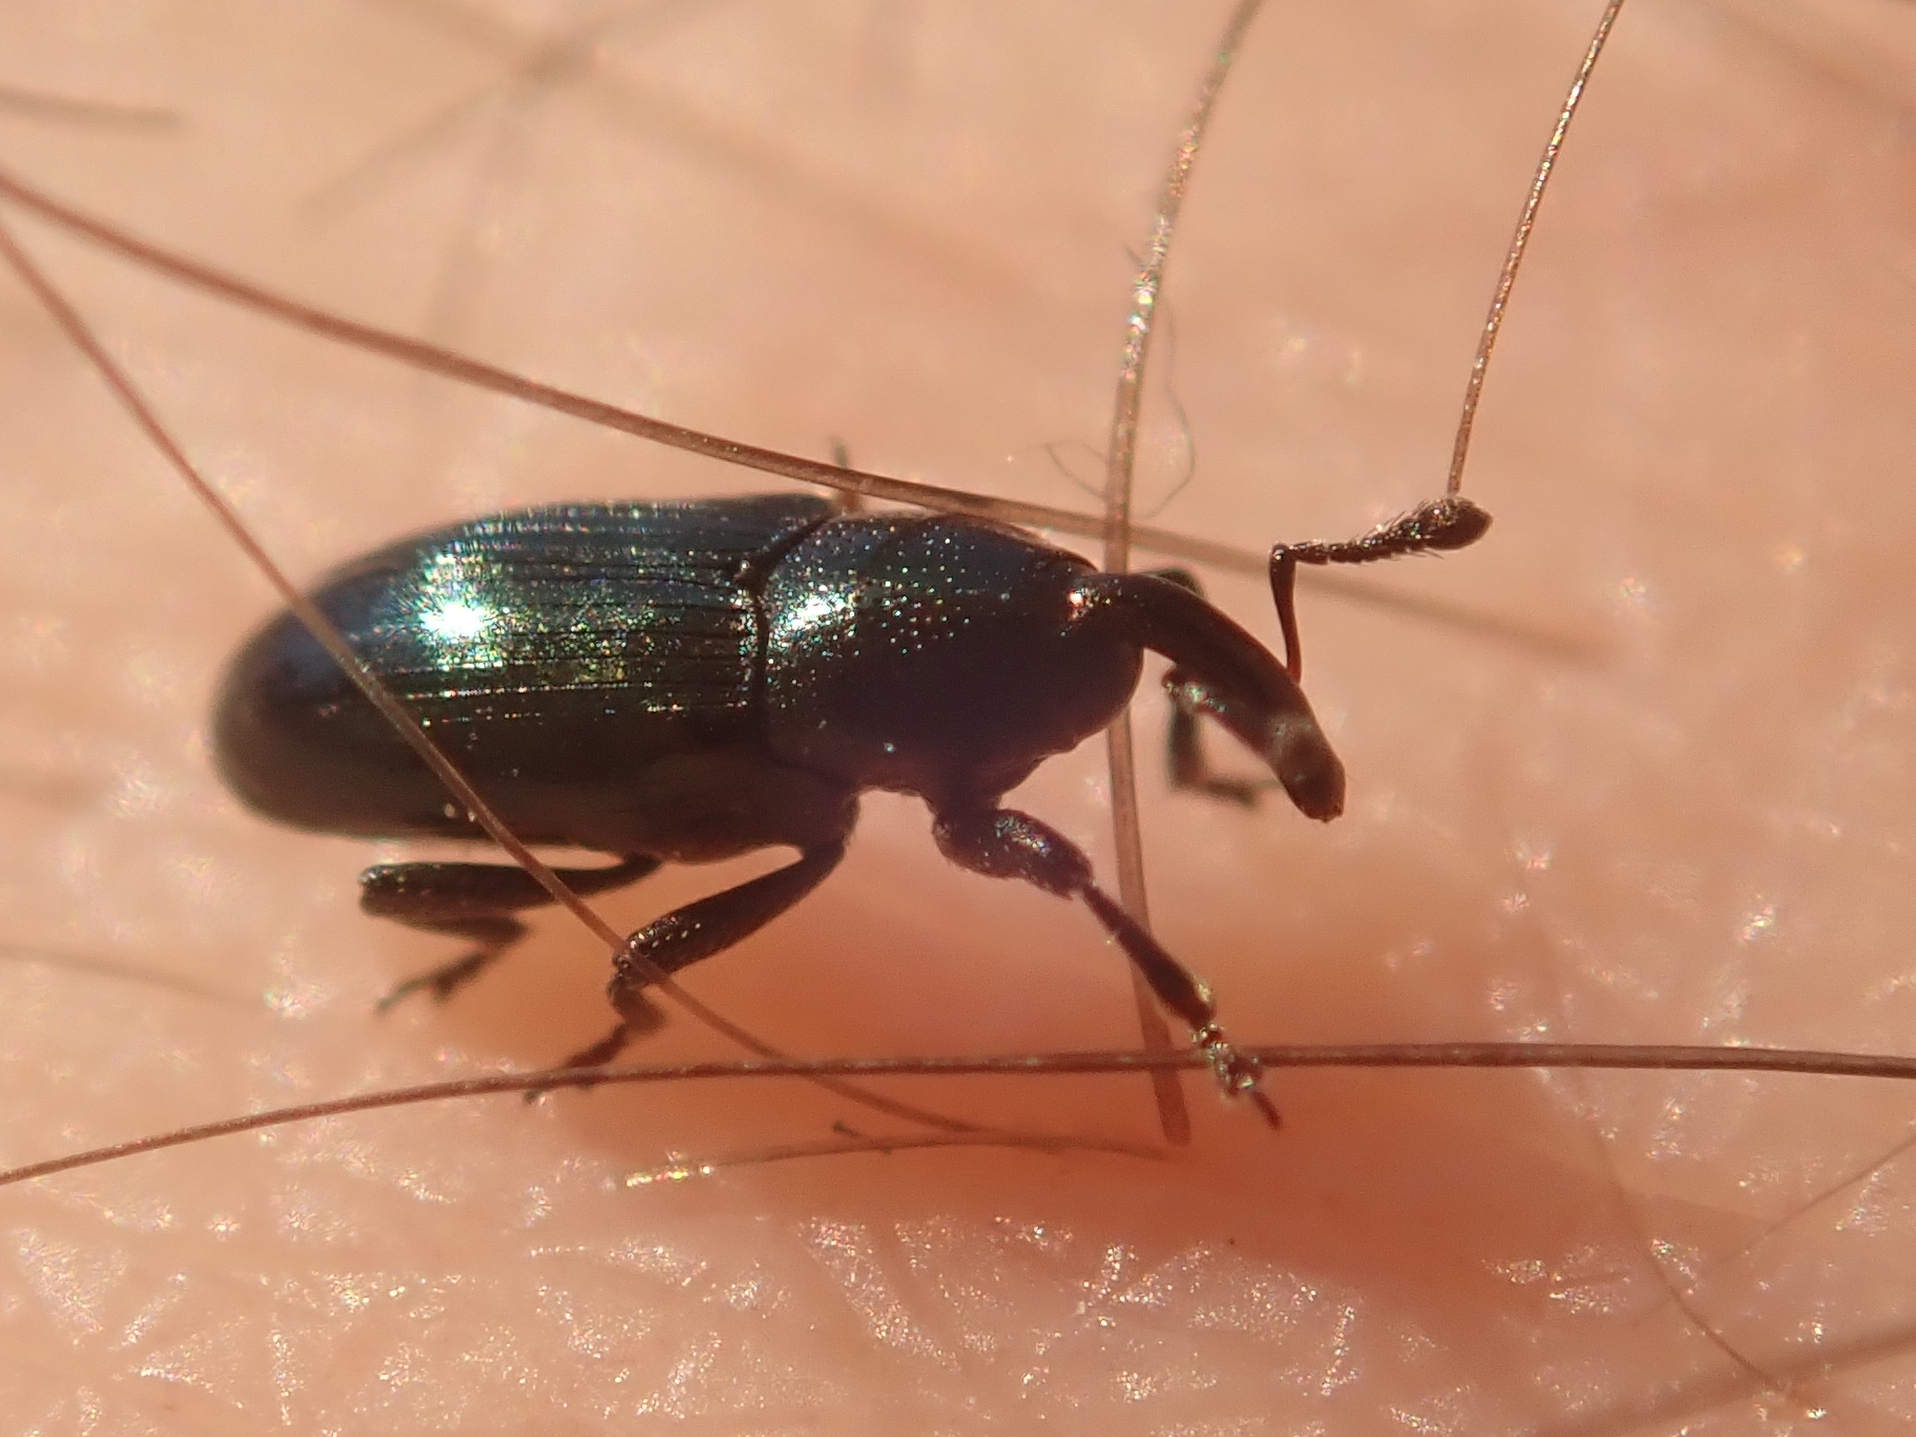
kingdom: Animalia
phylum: Arthropoda
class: Insecta
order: Coleoptera
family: Curculionidae
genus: Baris
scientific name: Baris
